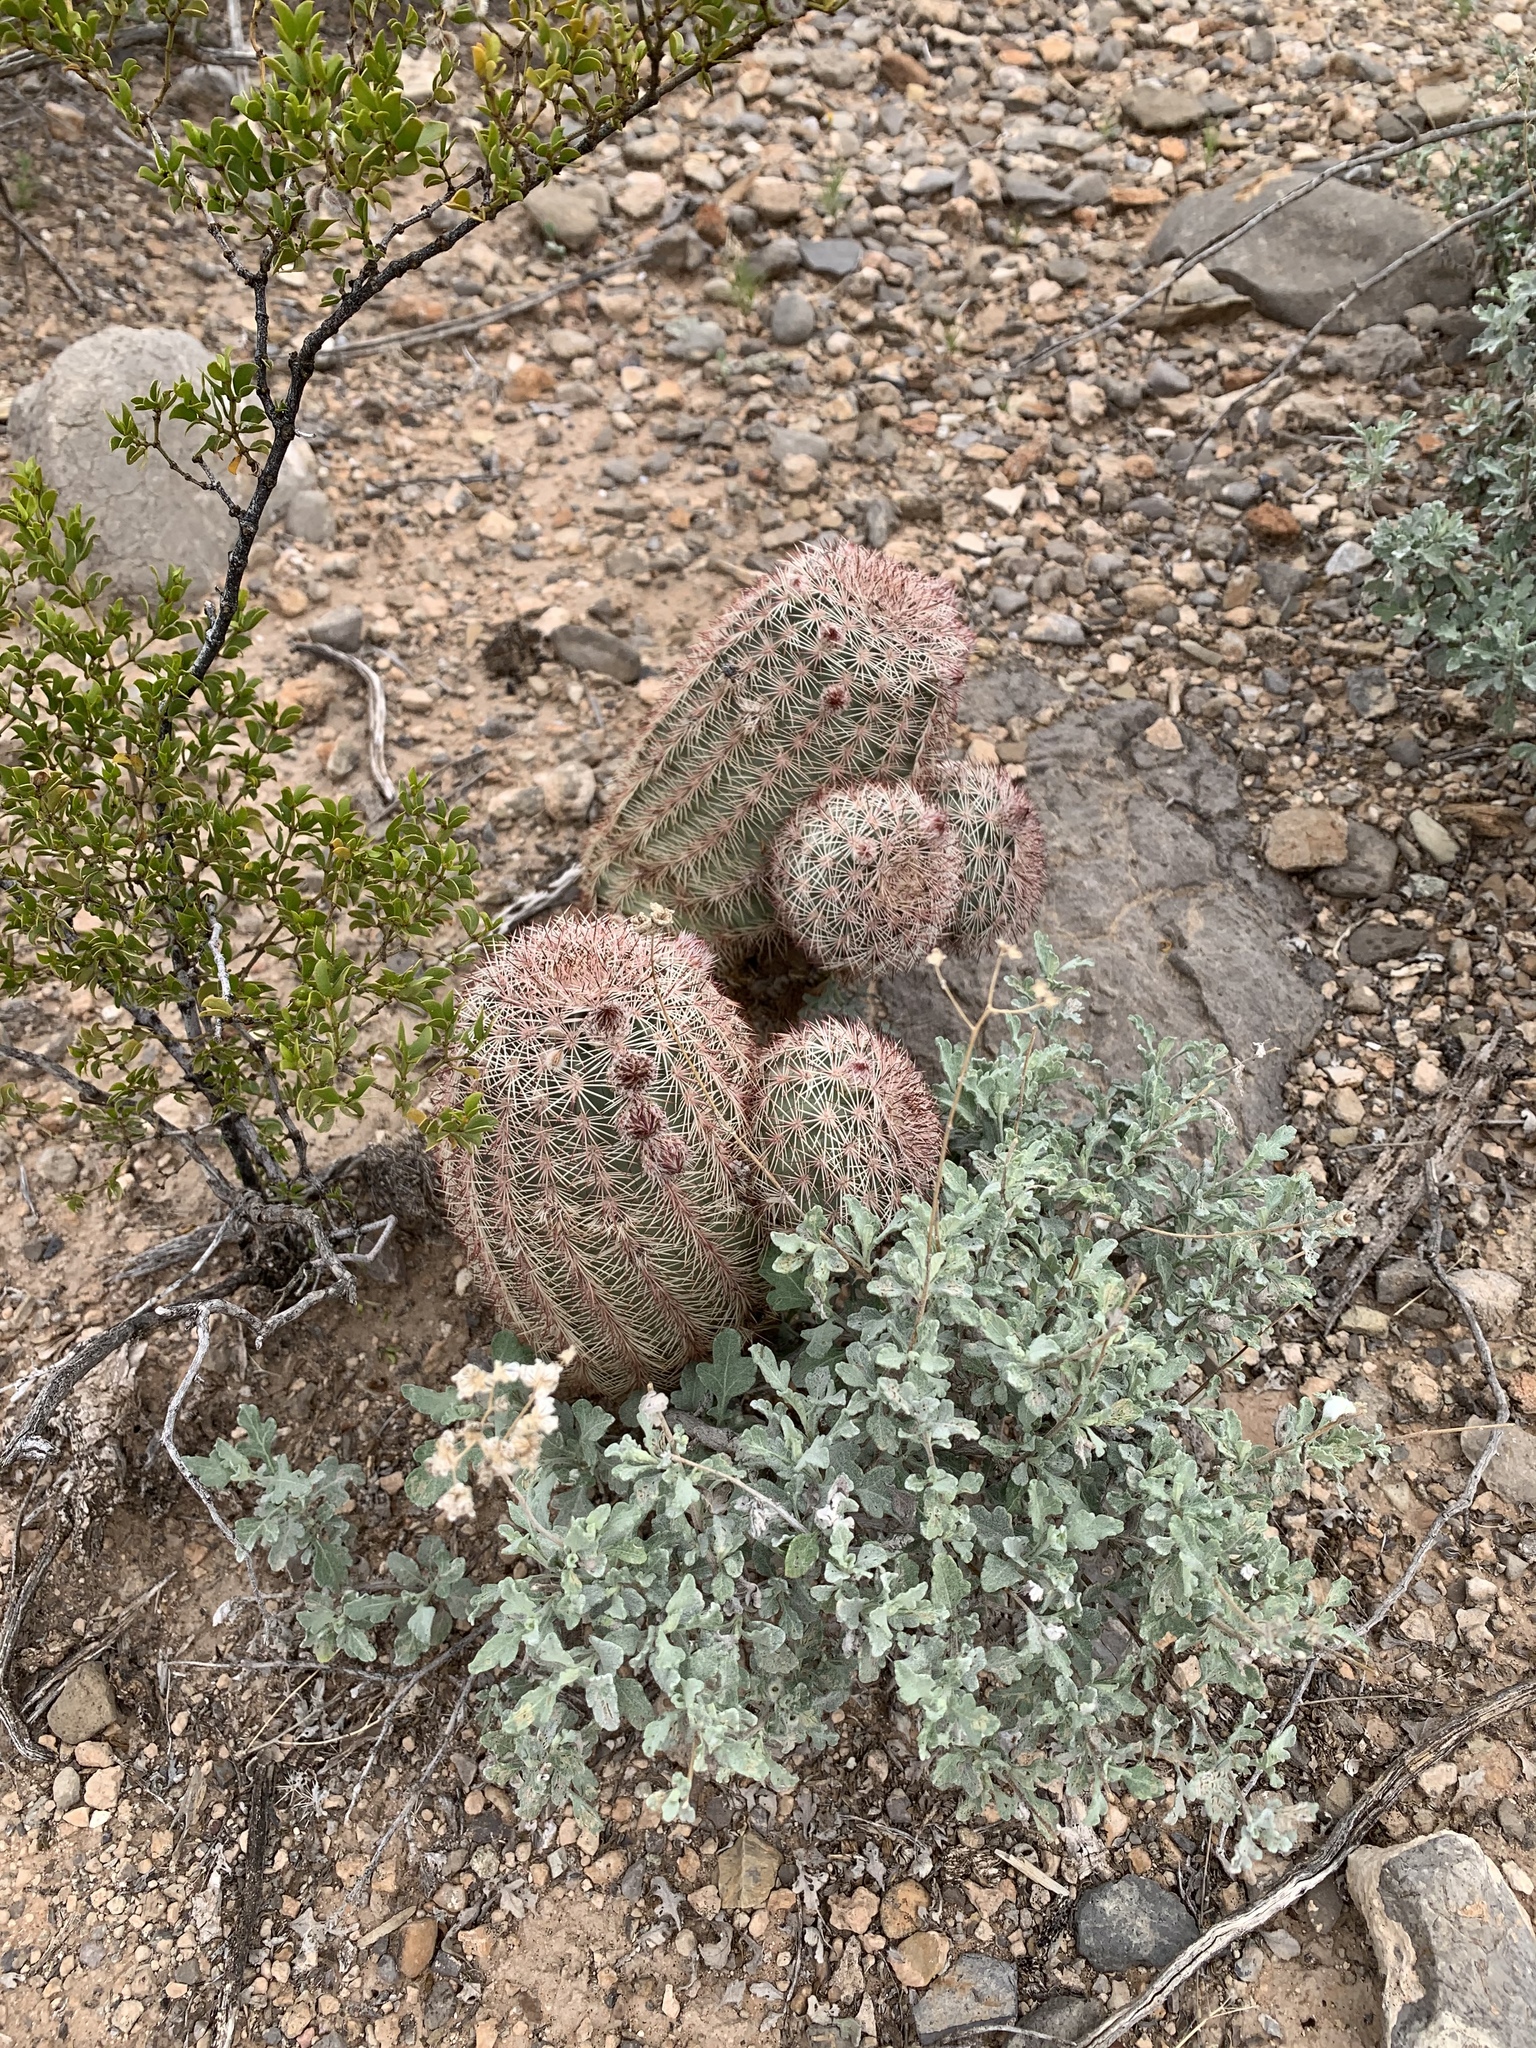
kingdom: Plantae
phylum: Tracheophyta
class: Magnoliopsida
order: Caryophyllales
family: Cactaceae
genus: Echinocereus
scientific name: Echinocereus dasyacanthus
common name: Spiny hedgehog cactus
